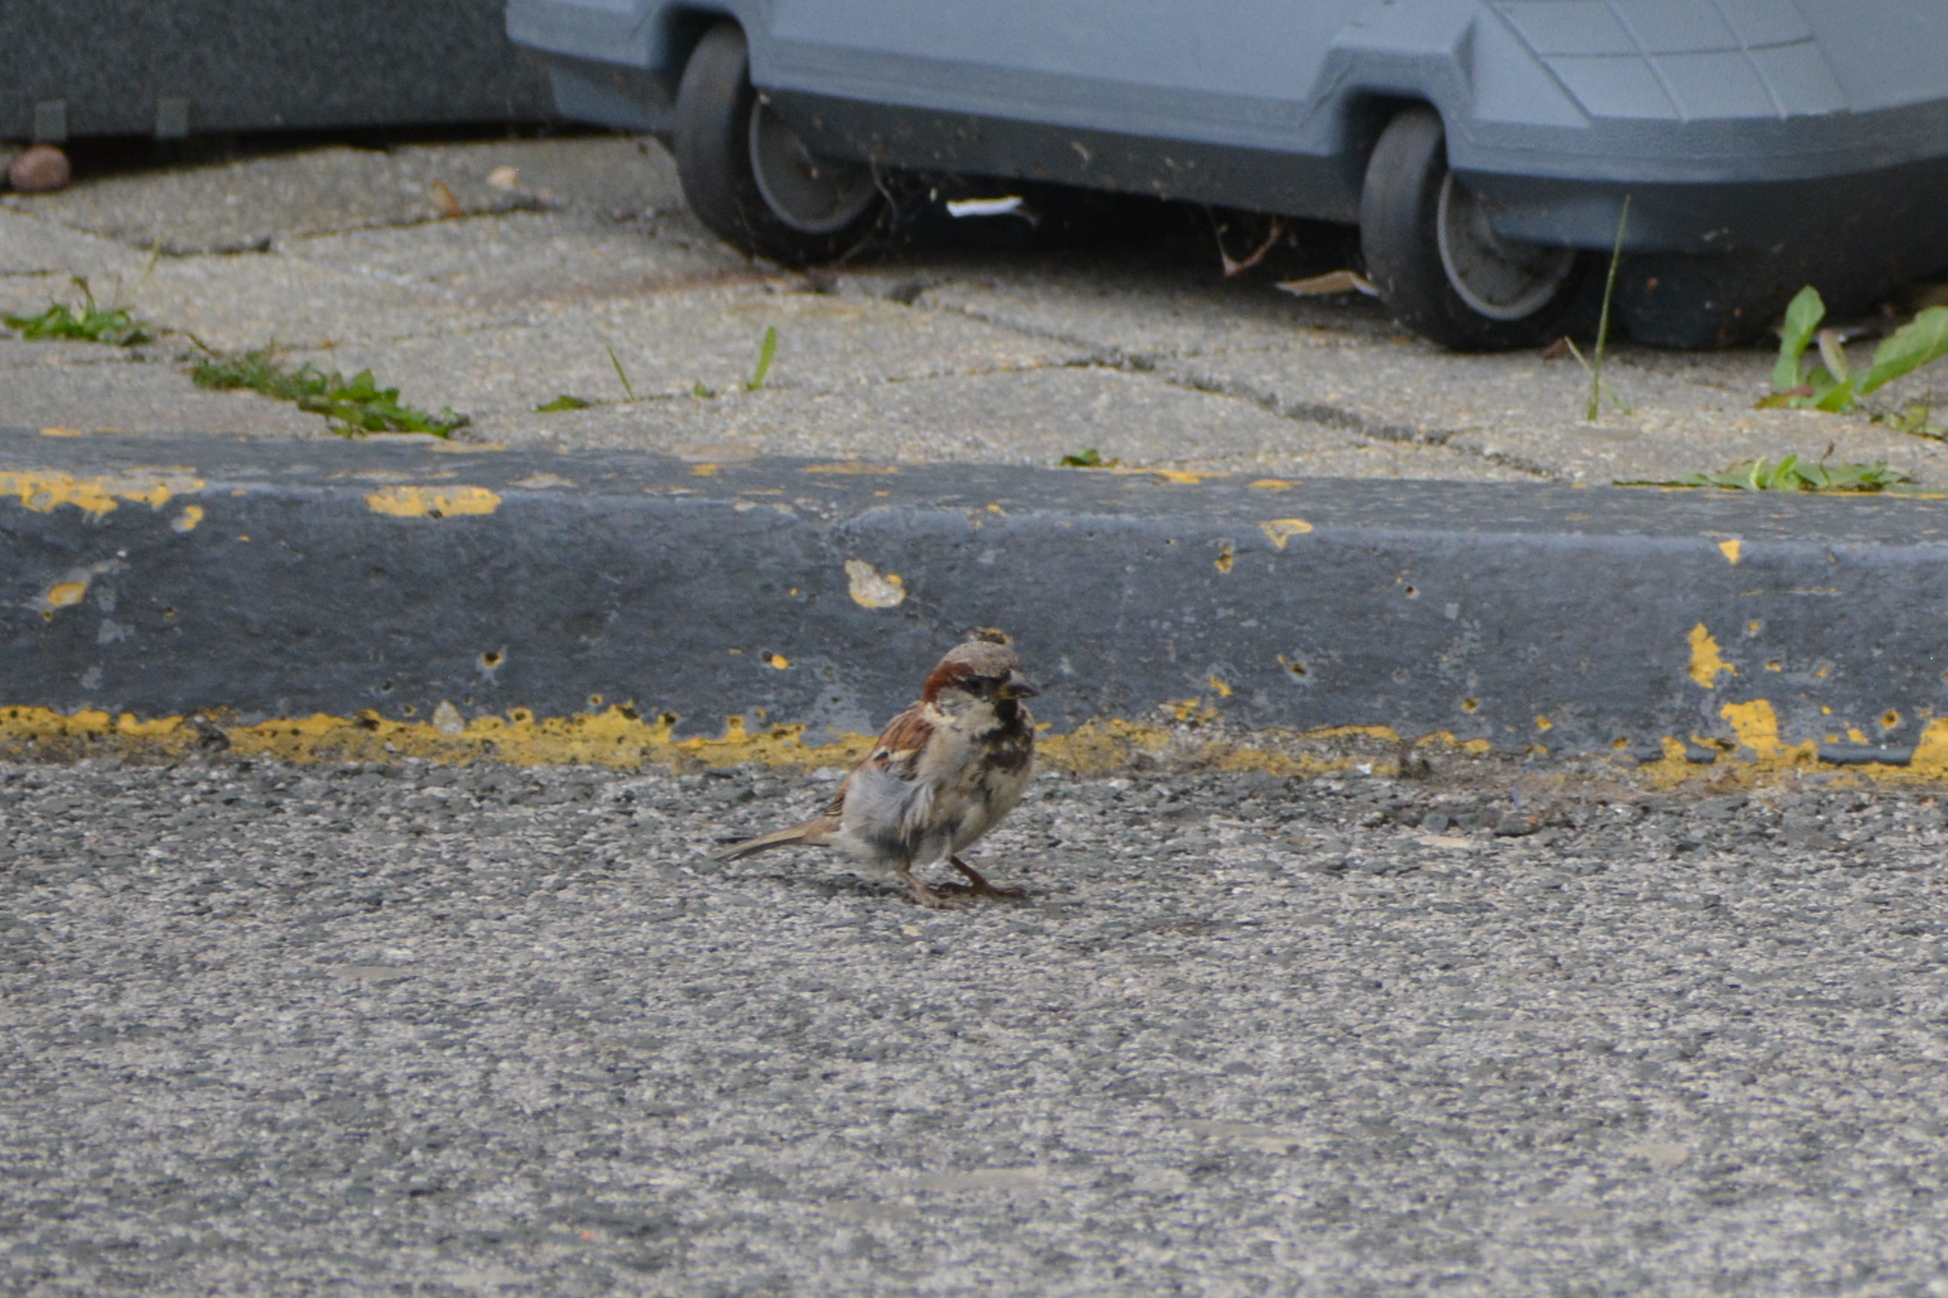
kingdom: Animalia
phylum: Chordata
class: Aves
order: Passeriformes
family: Passeridae
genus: Passer
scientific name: Passer domesticus
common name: House sparrow
